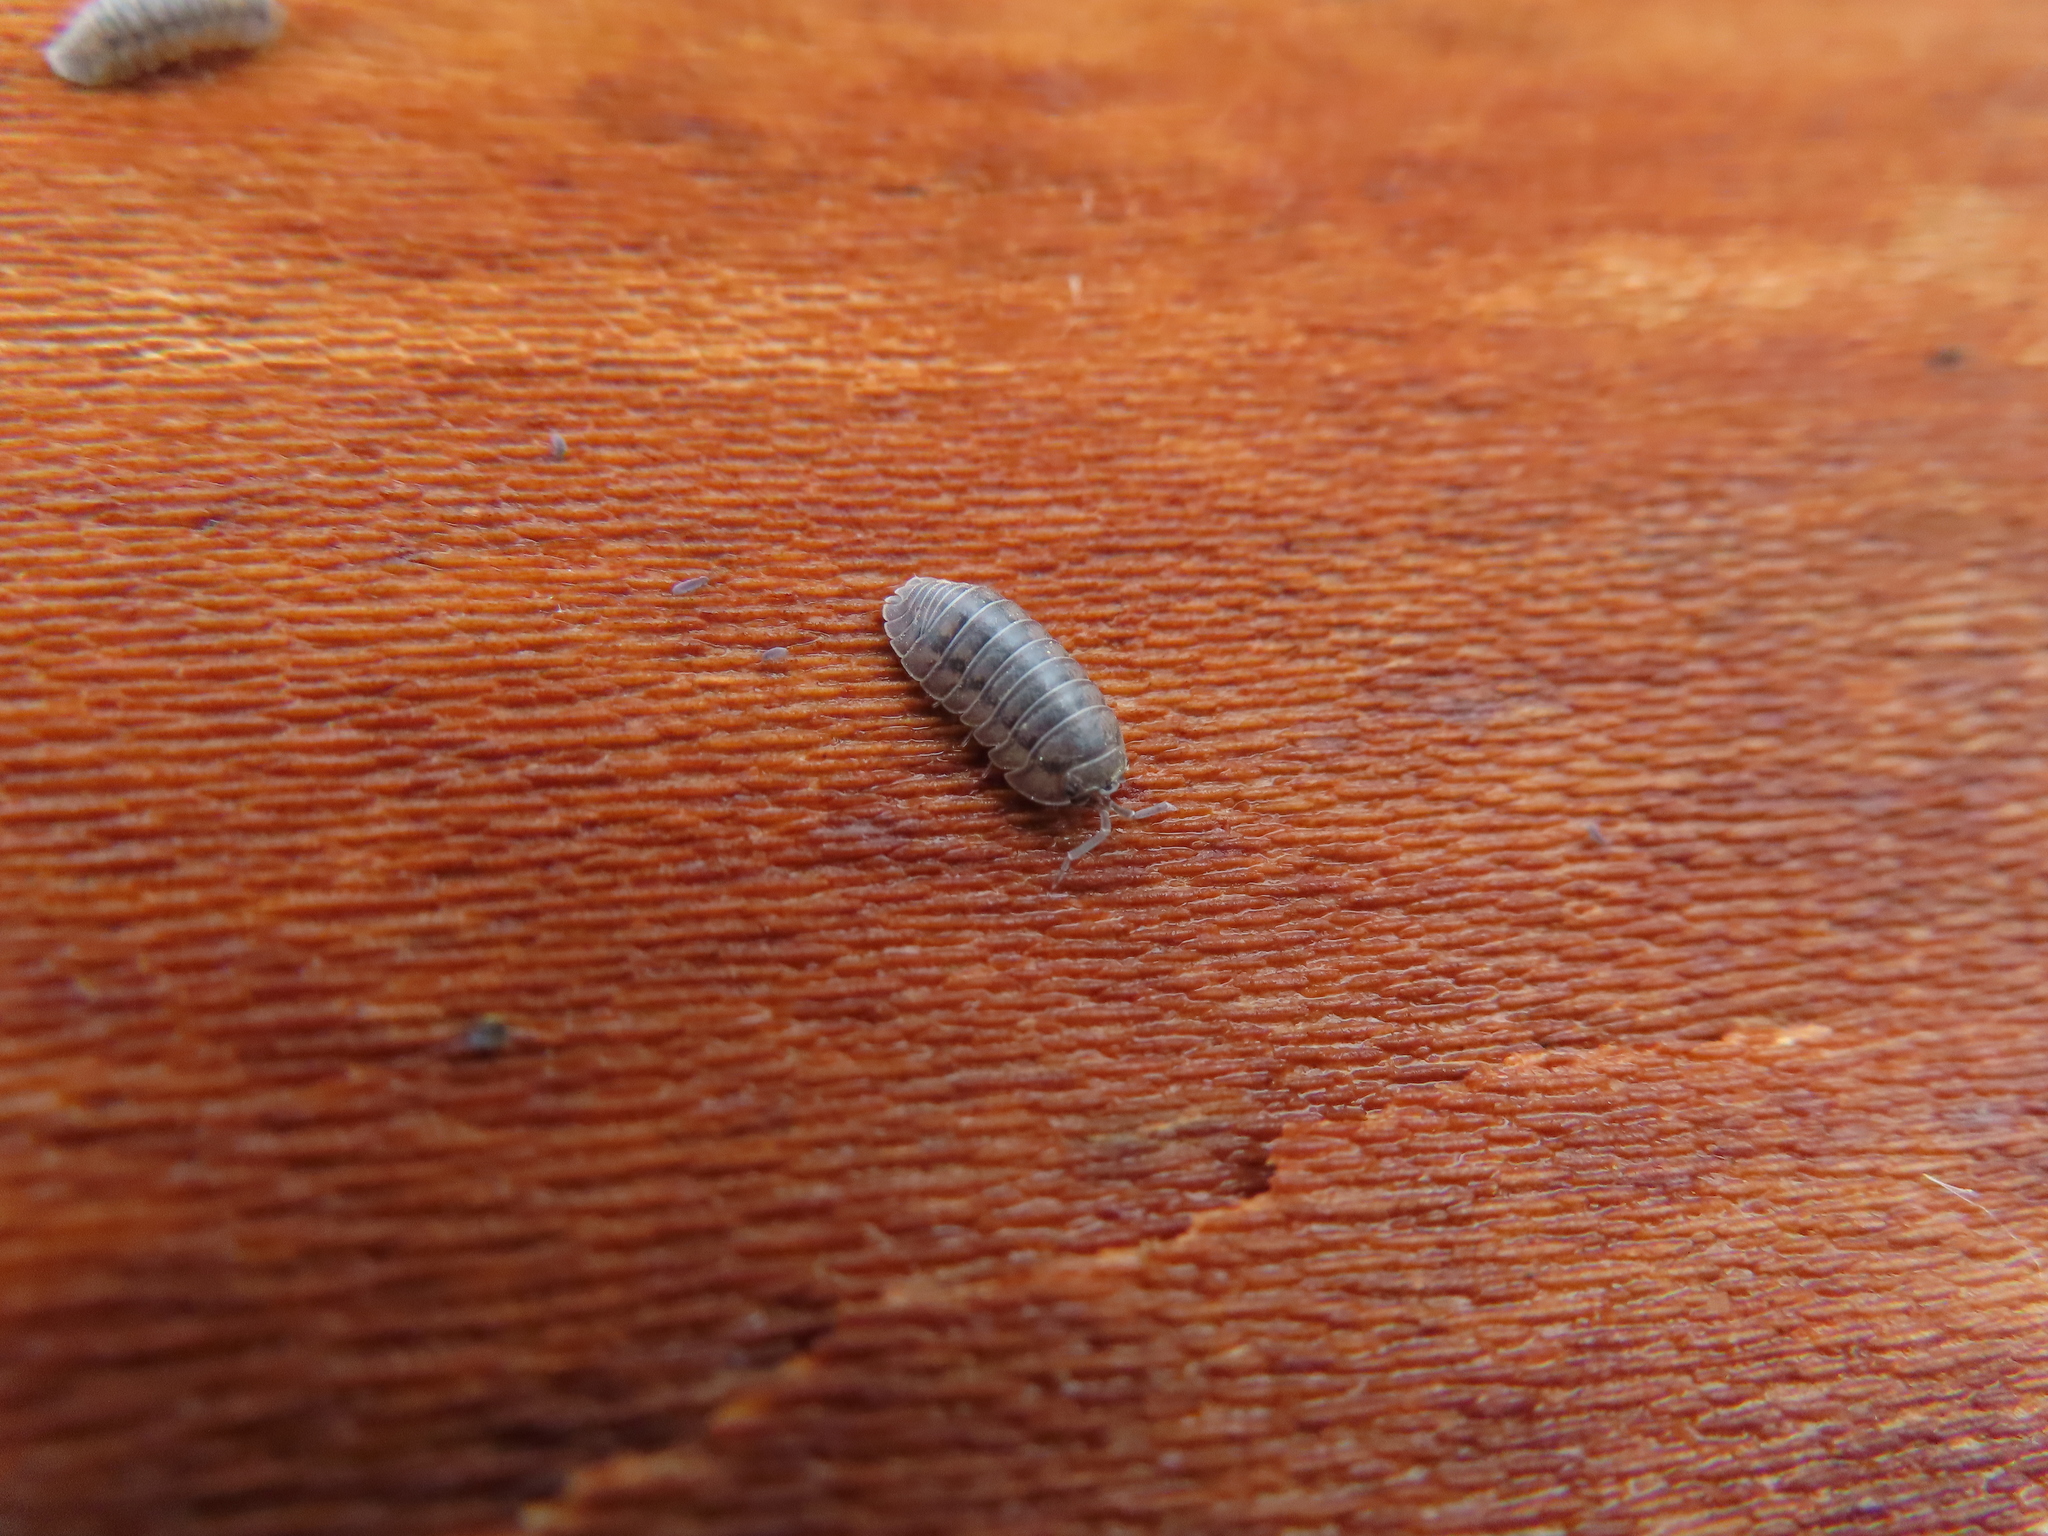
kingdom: Animalia
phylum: Arthropoda
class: Malacostraca
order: Isopoda
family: Armadillidiidae
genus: Armadillidium
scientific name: Armadillidium nasatum
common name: Isopod
